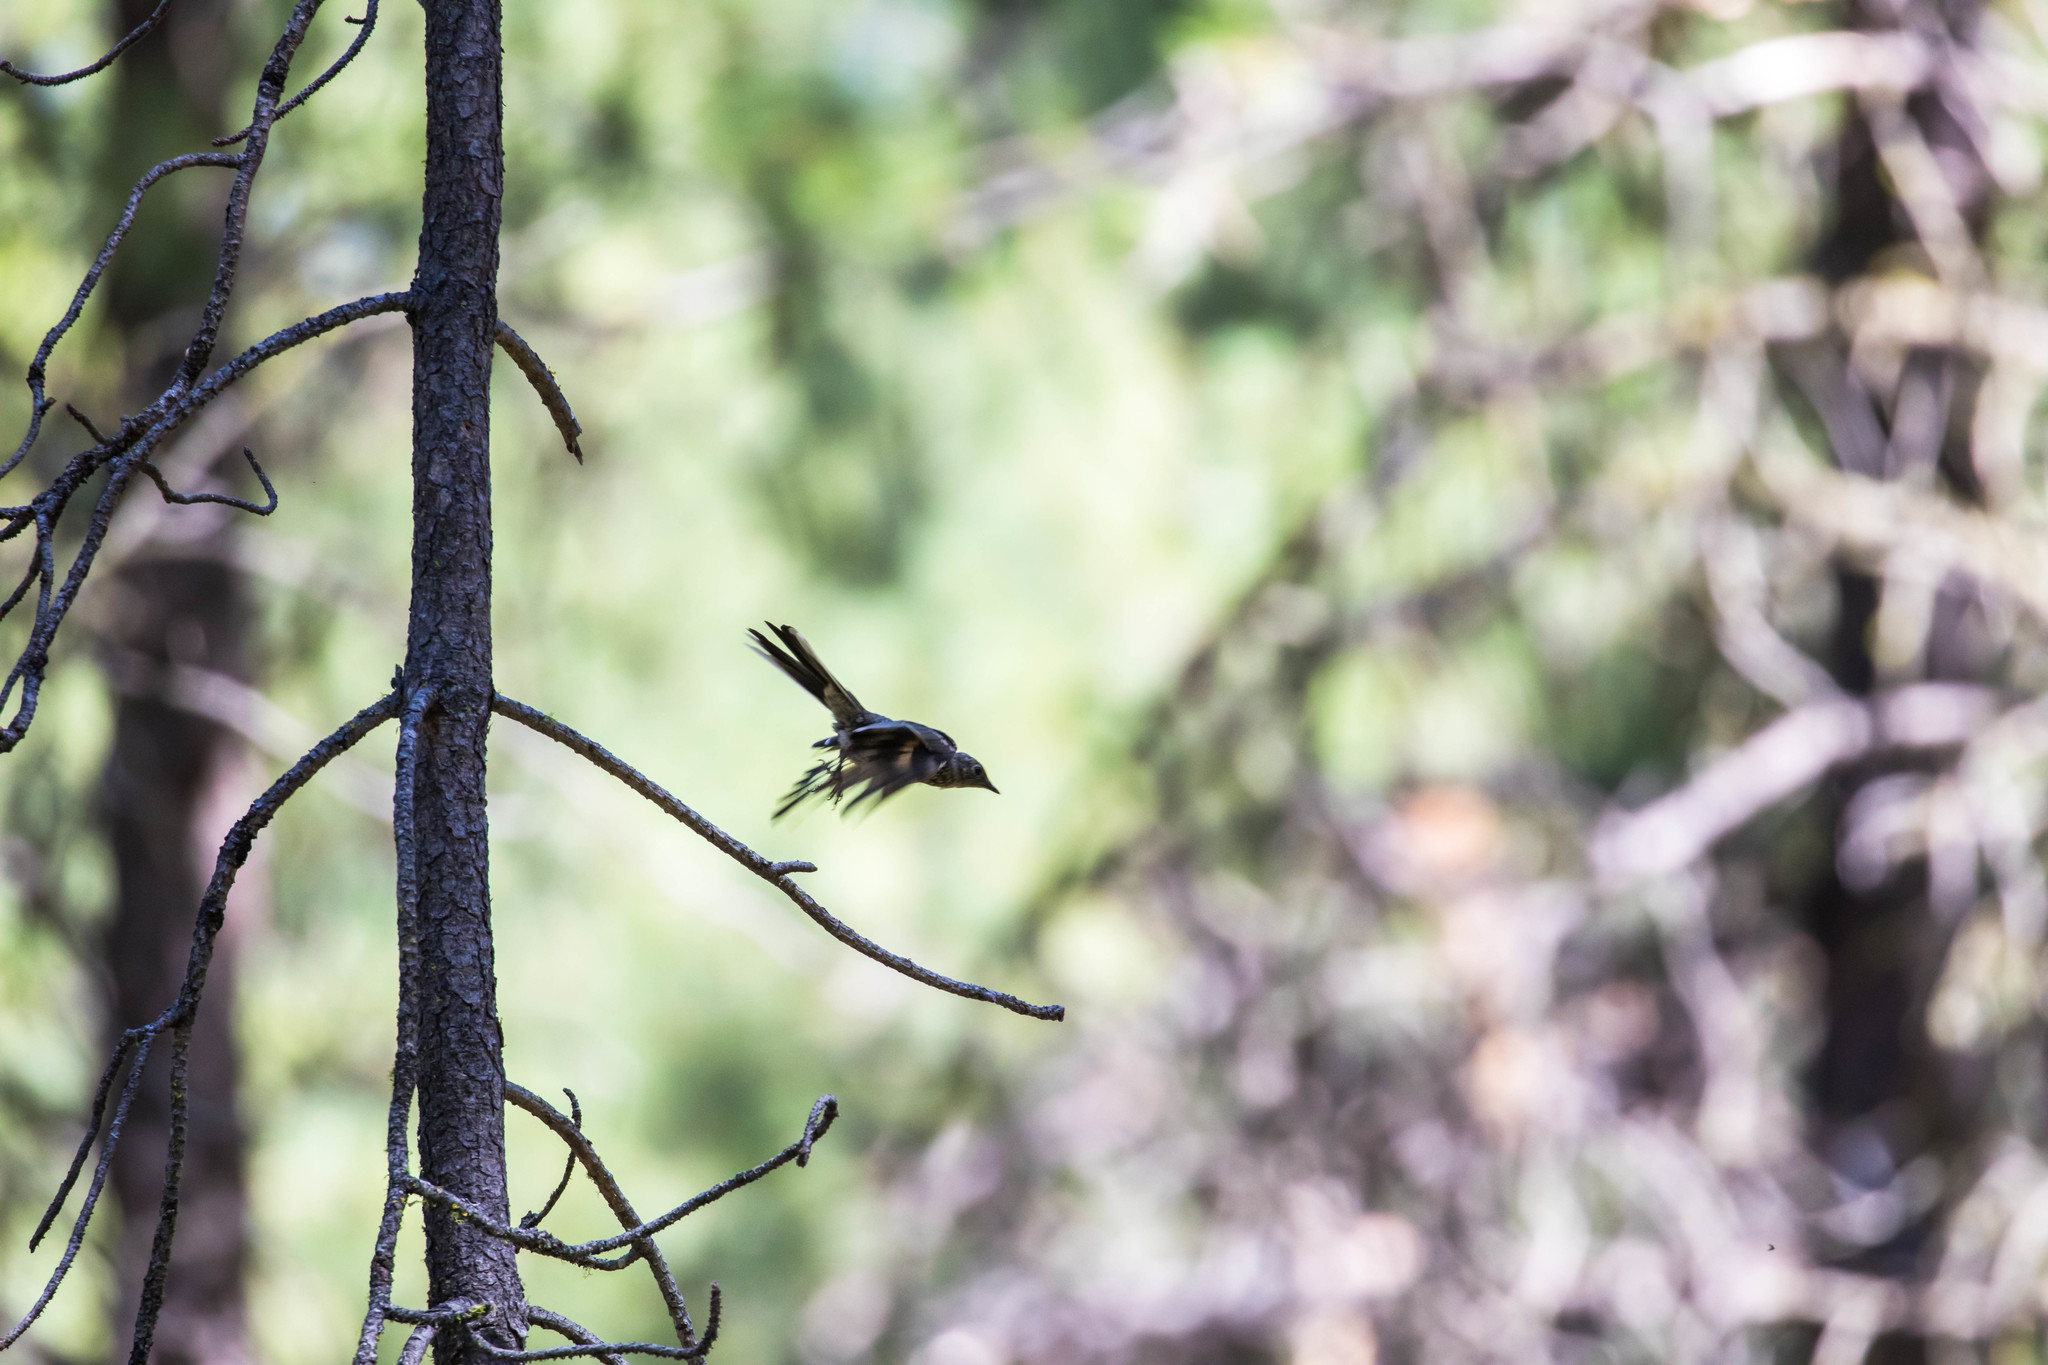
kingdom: Animalia
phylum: Chordata
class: Aves
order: Passeriformes
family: Turdidae
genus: Myadestes
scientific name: Myadestes townsendi
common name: Townsend's solitaire
